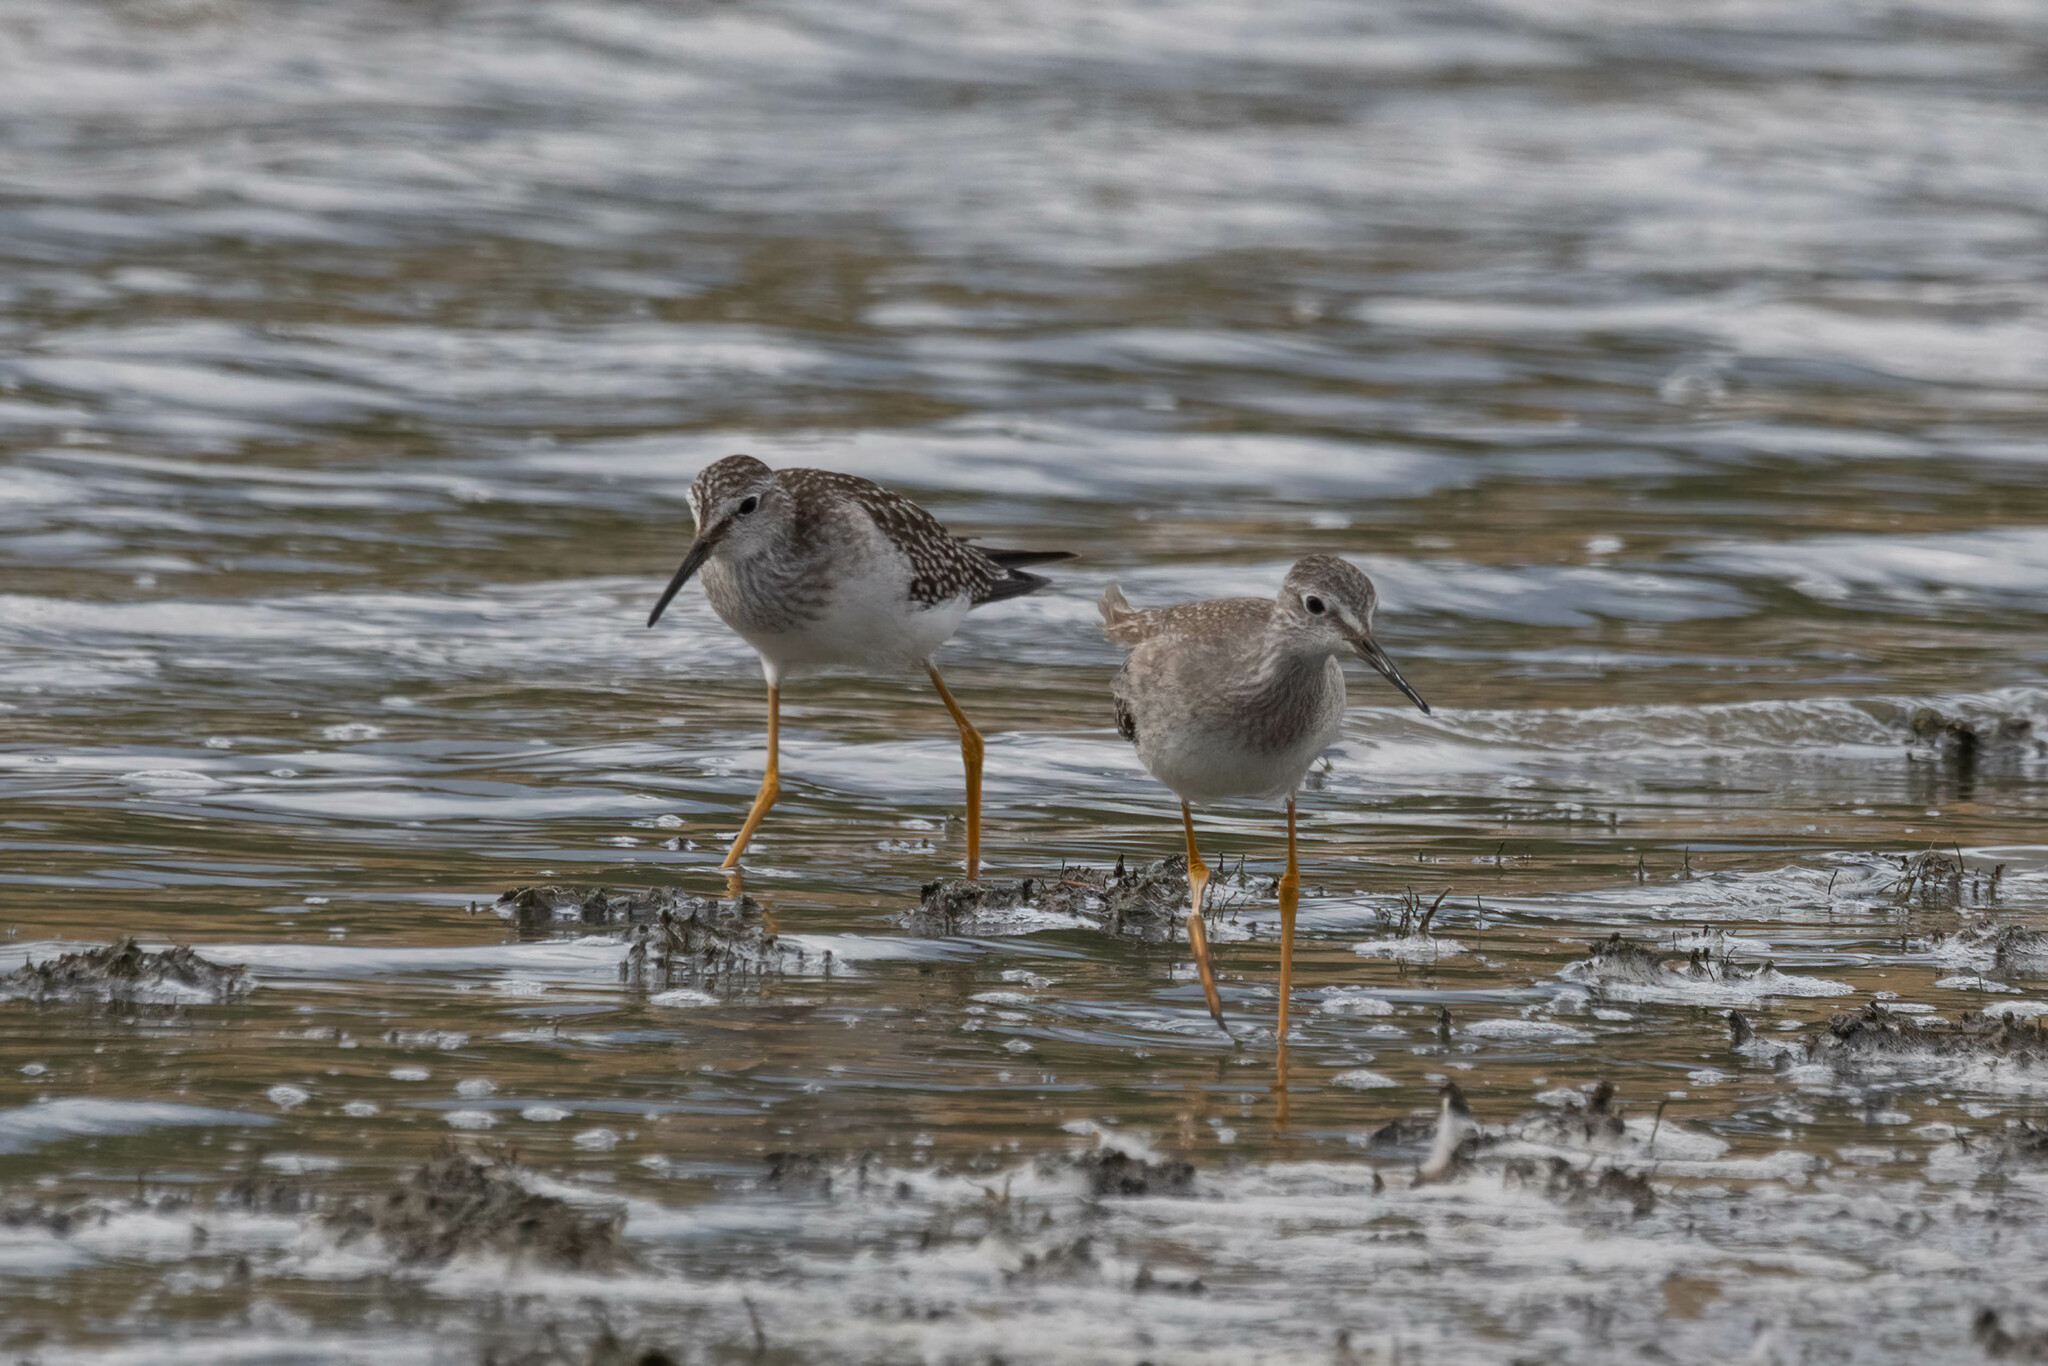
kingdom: Animalia
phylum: Chordata
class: Aves
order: Charadriiformes
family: Scolopacidae
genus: Tringa
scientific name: Tringa flavipes
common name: Lesser yellowlegs
